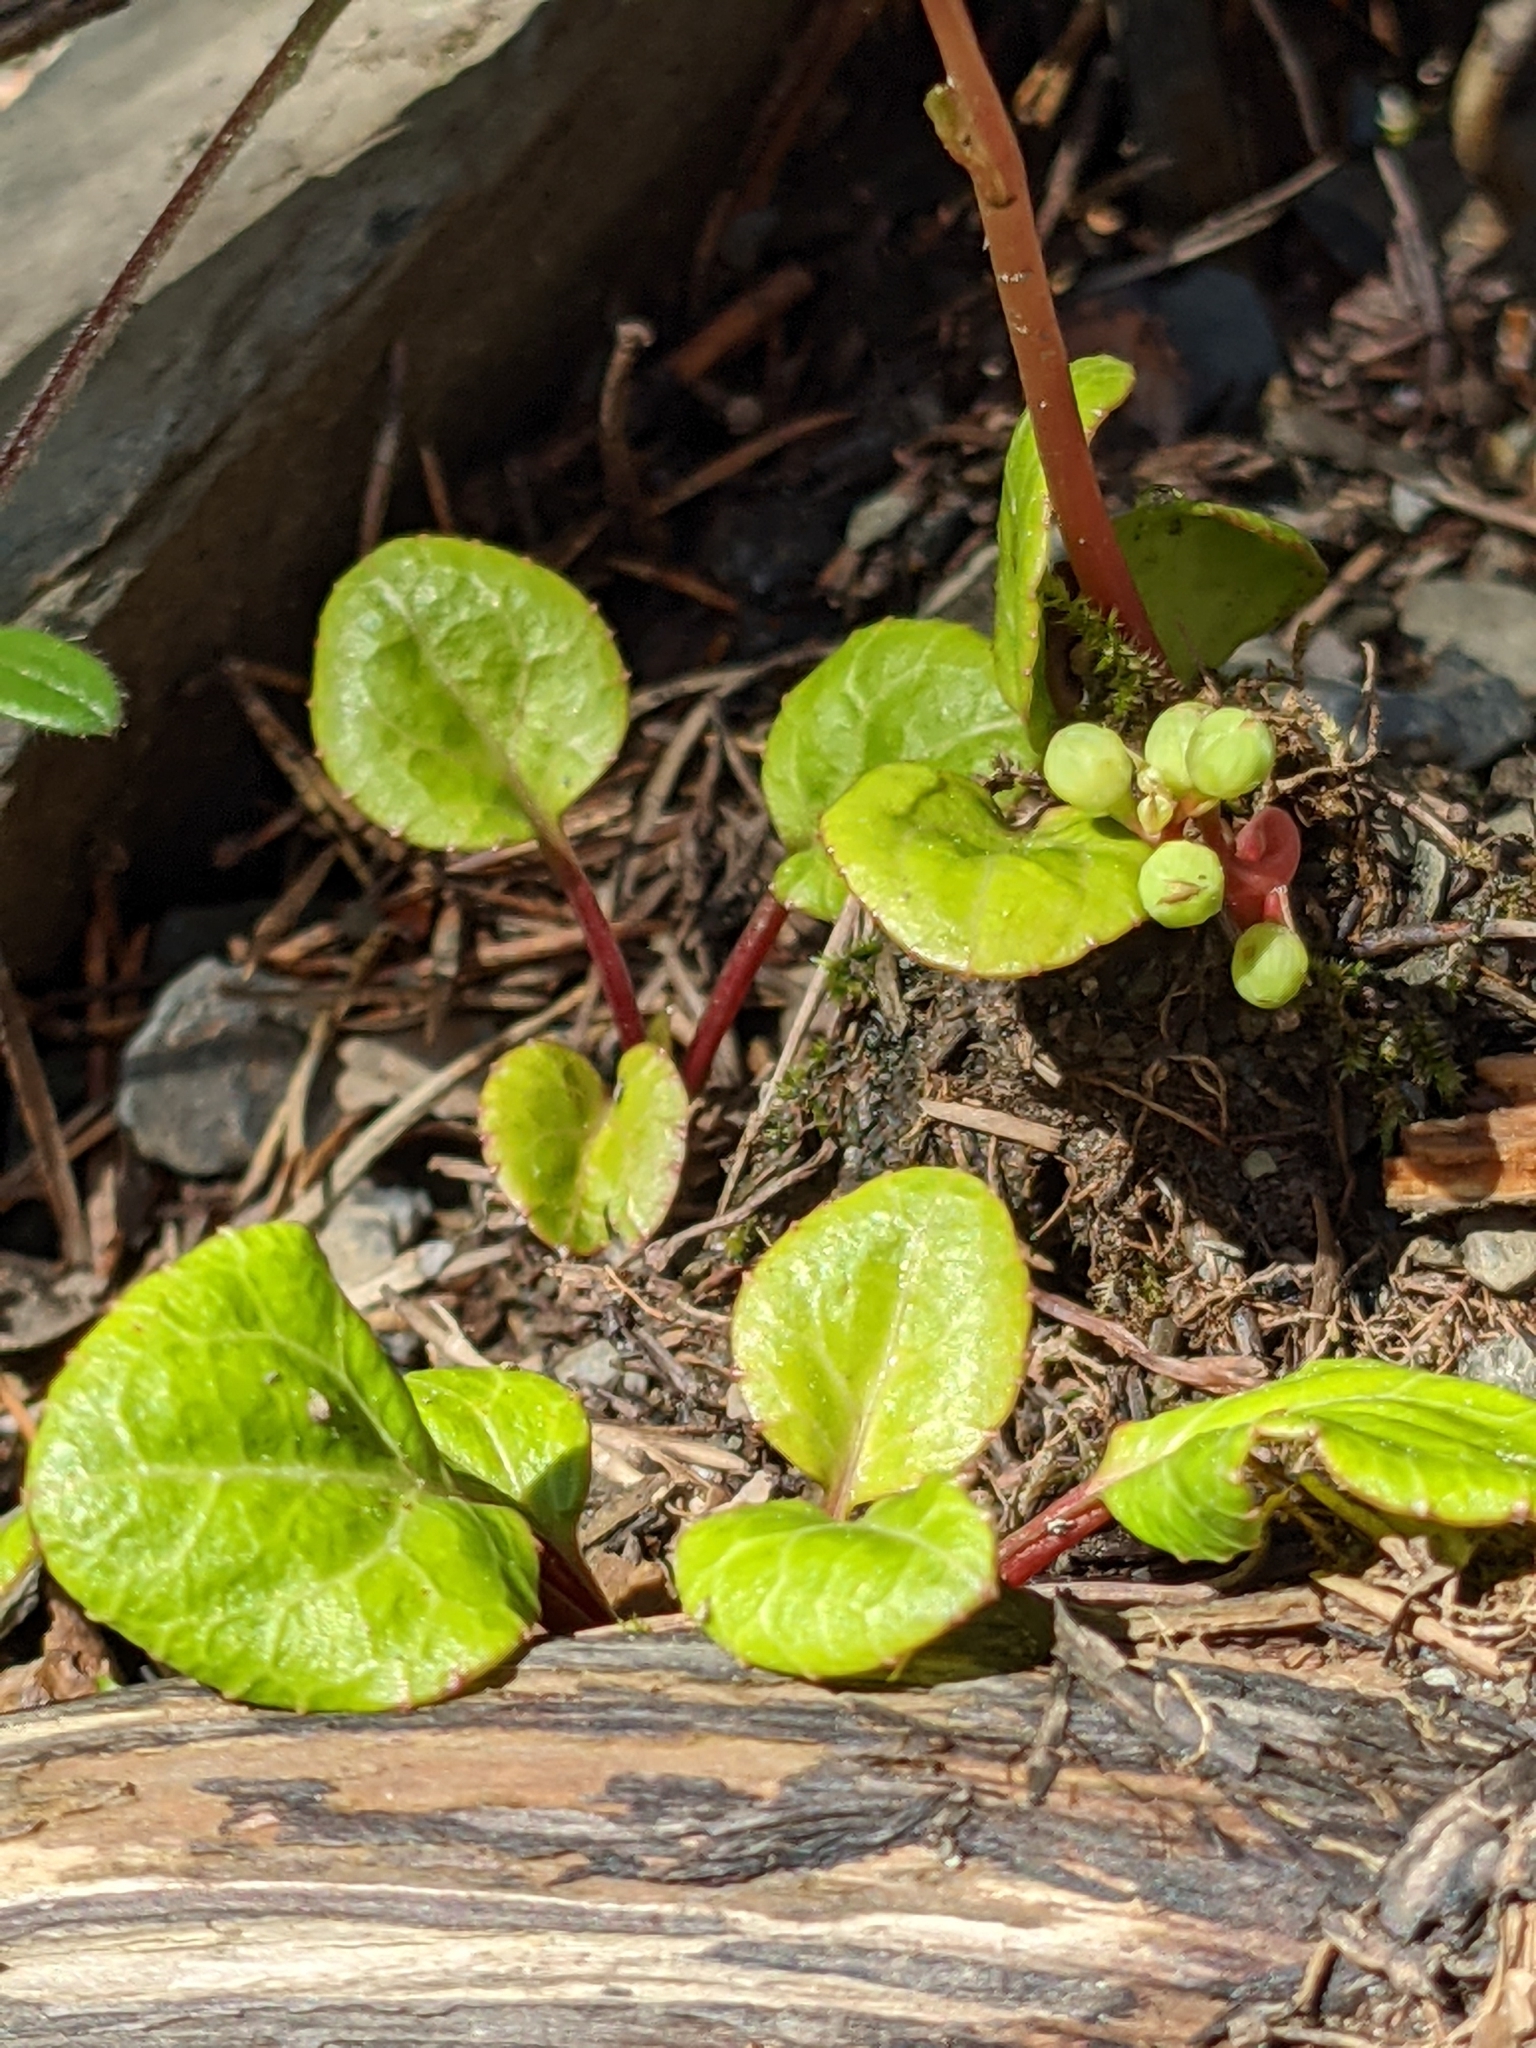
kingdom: Plantae
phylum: Tracheophyta
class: Magnoliopsida
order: Ericales
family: Ericaceae
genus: Pyrola
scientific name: Pyrola chlorantha
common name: Green wintergreen
